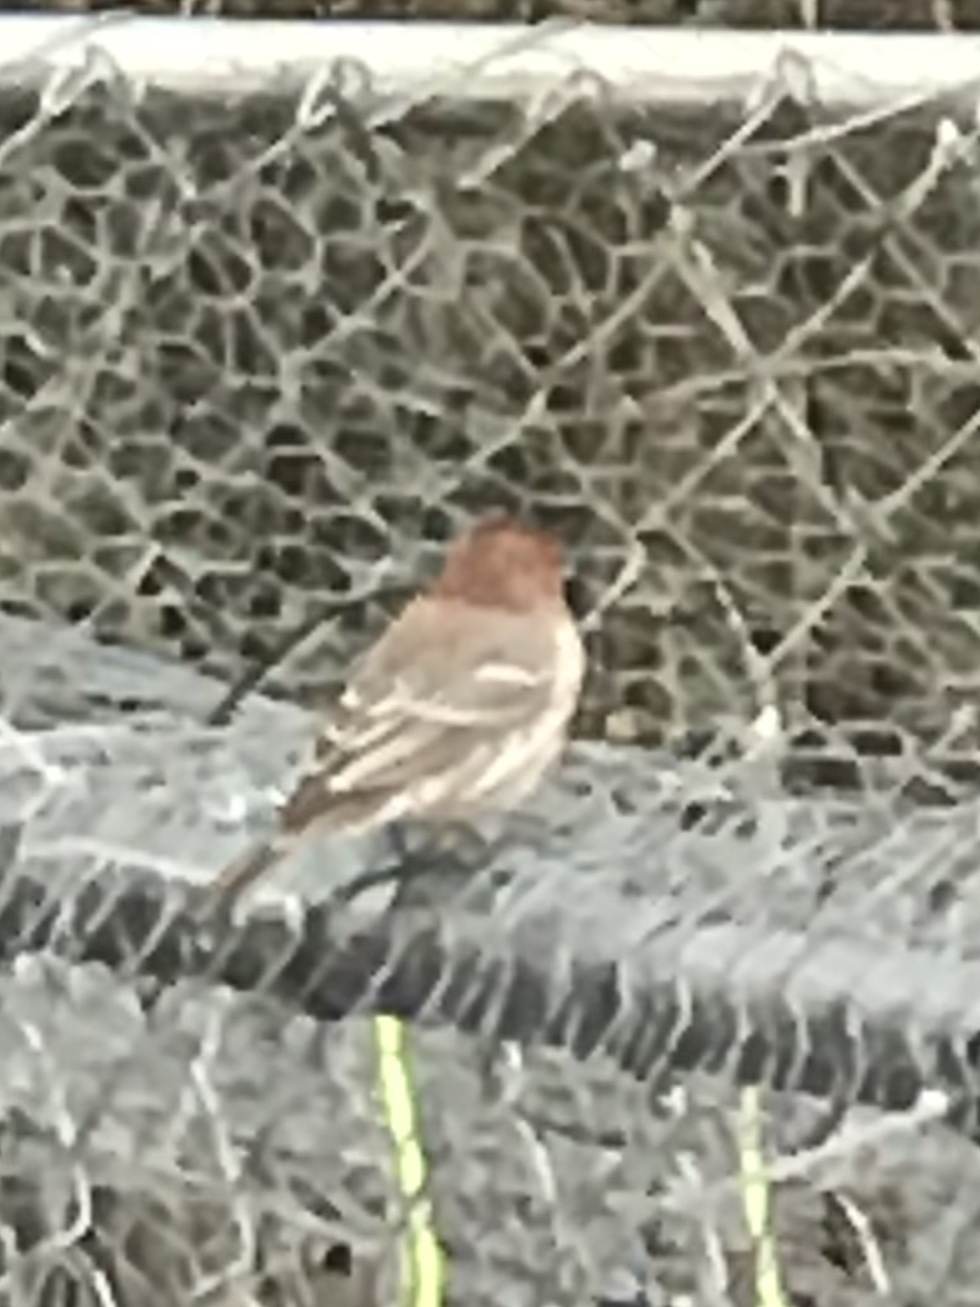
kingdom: Animalia
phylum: Chordata
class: Aves
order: Passeriformes
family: Fringillidae
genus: Haemorhous
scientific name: Haemorhous mexicanus
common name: House finch
